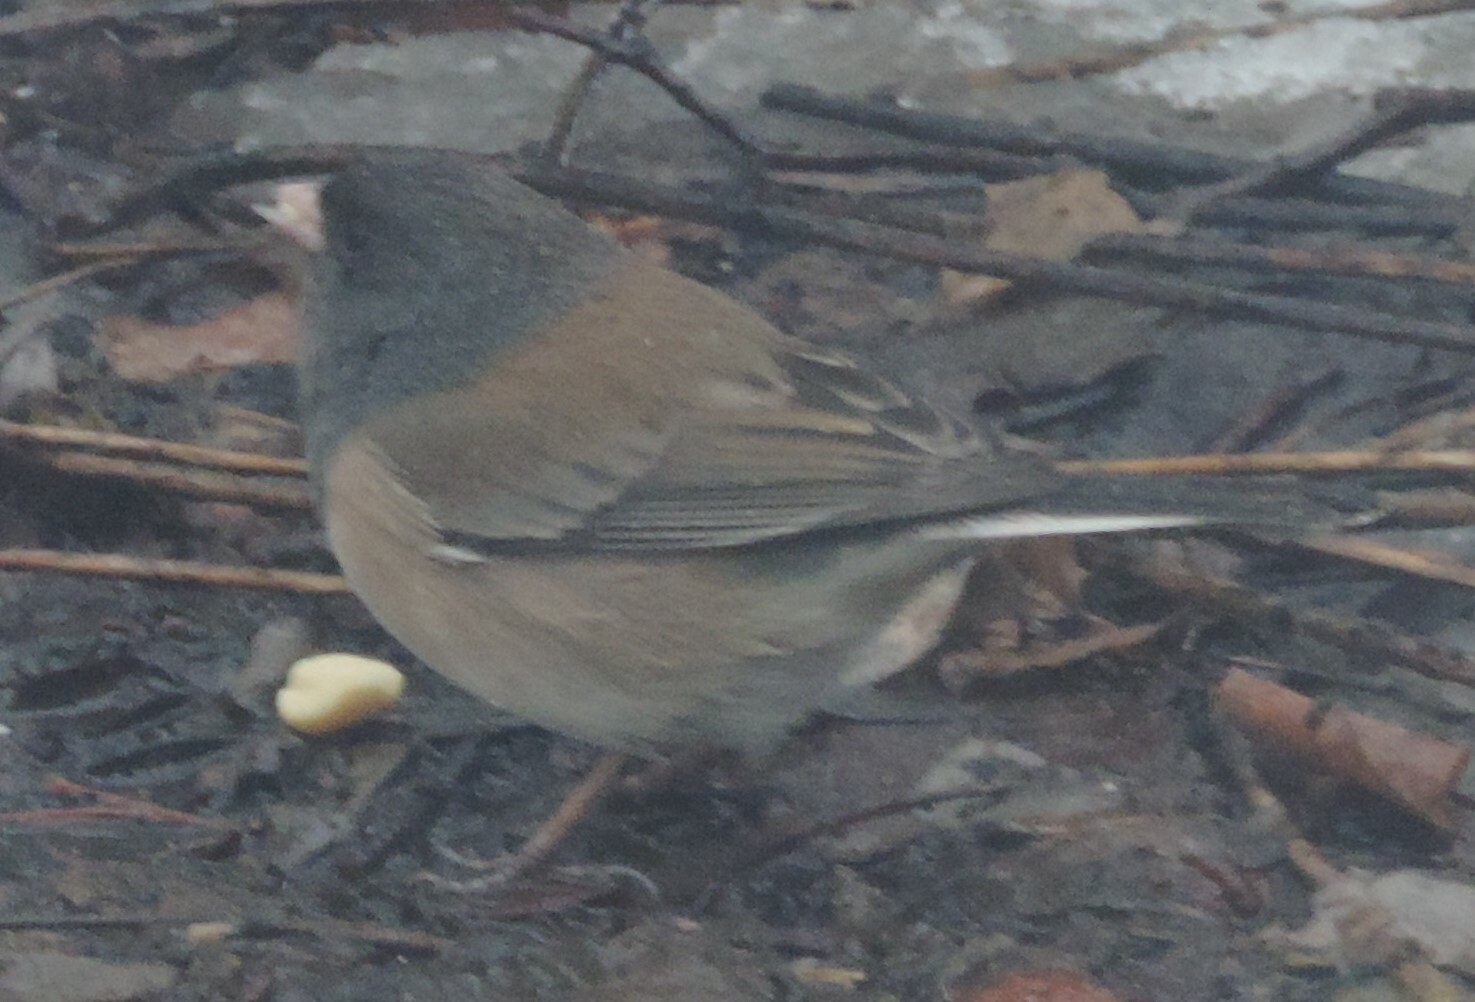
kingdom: Animalia
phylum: Chordata
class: Aves
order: Passeriformes
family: Passerellidae
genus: Junco
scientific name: Junco hyemalis
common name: Dark-eyed junco
